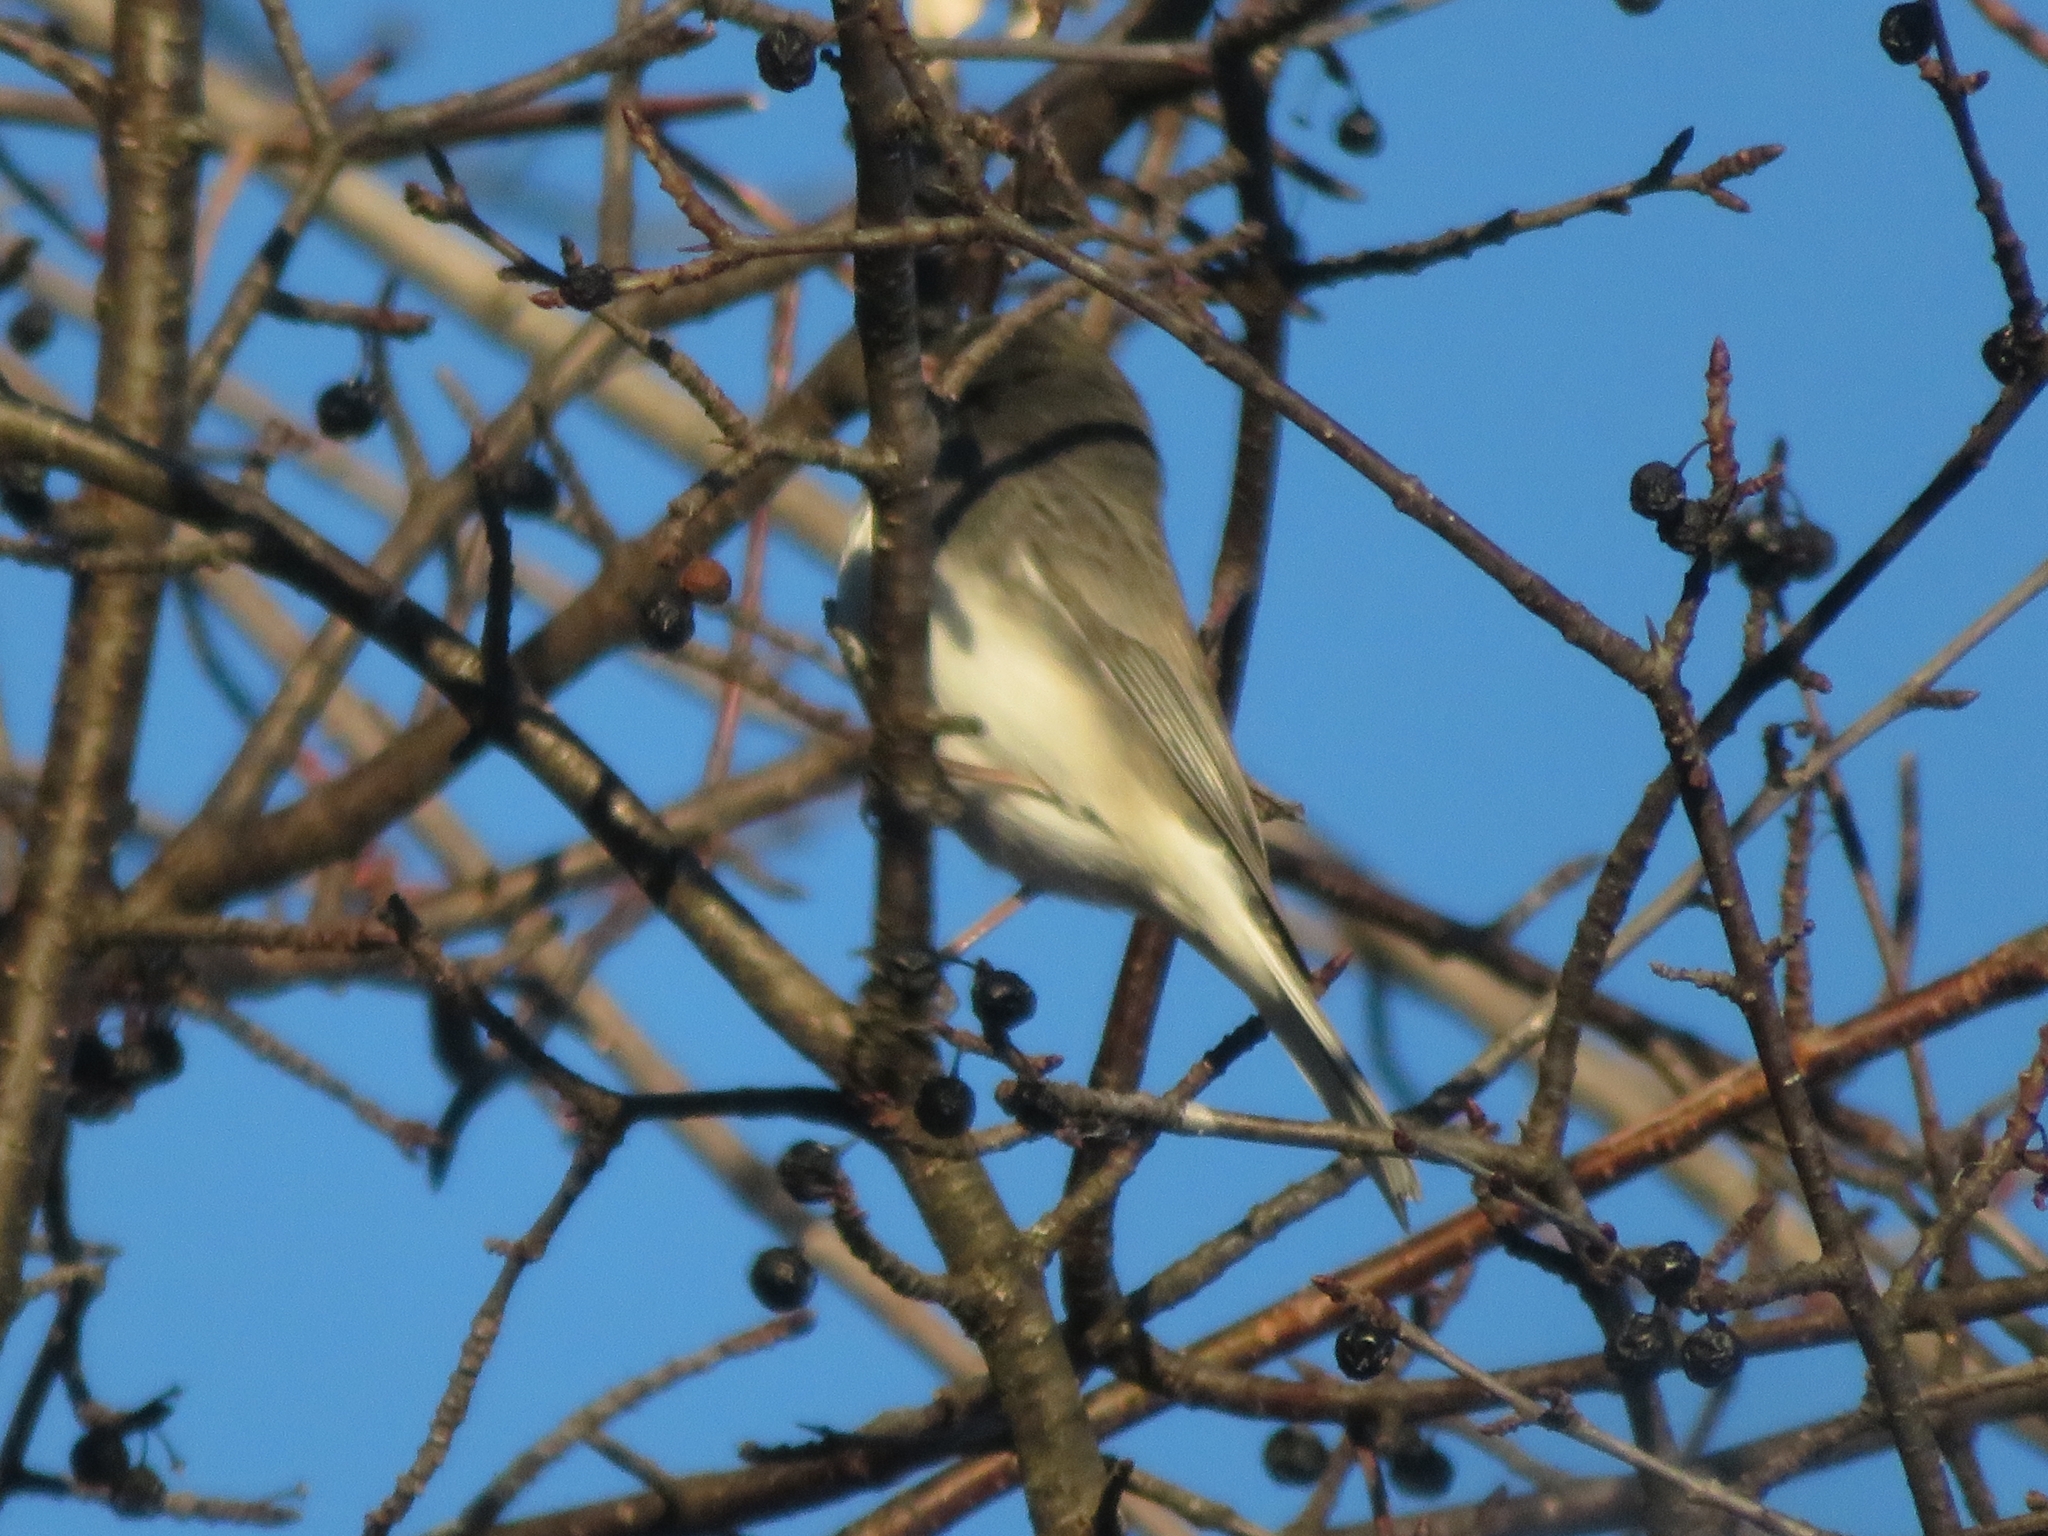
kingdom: Animalia
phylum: Chordata
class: Aves
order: Passeriformes
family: Passerellidae
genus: Junco
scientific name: Junco hyemalis
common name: Dark-eyed junco
